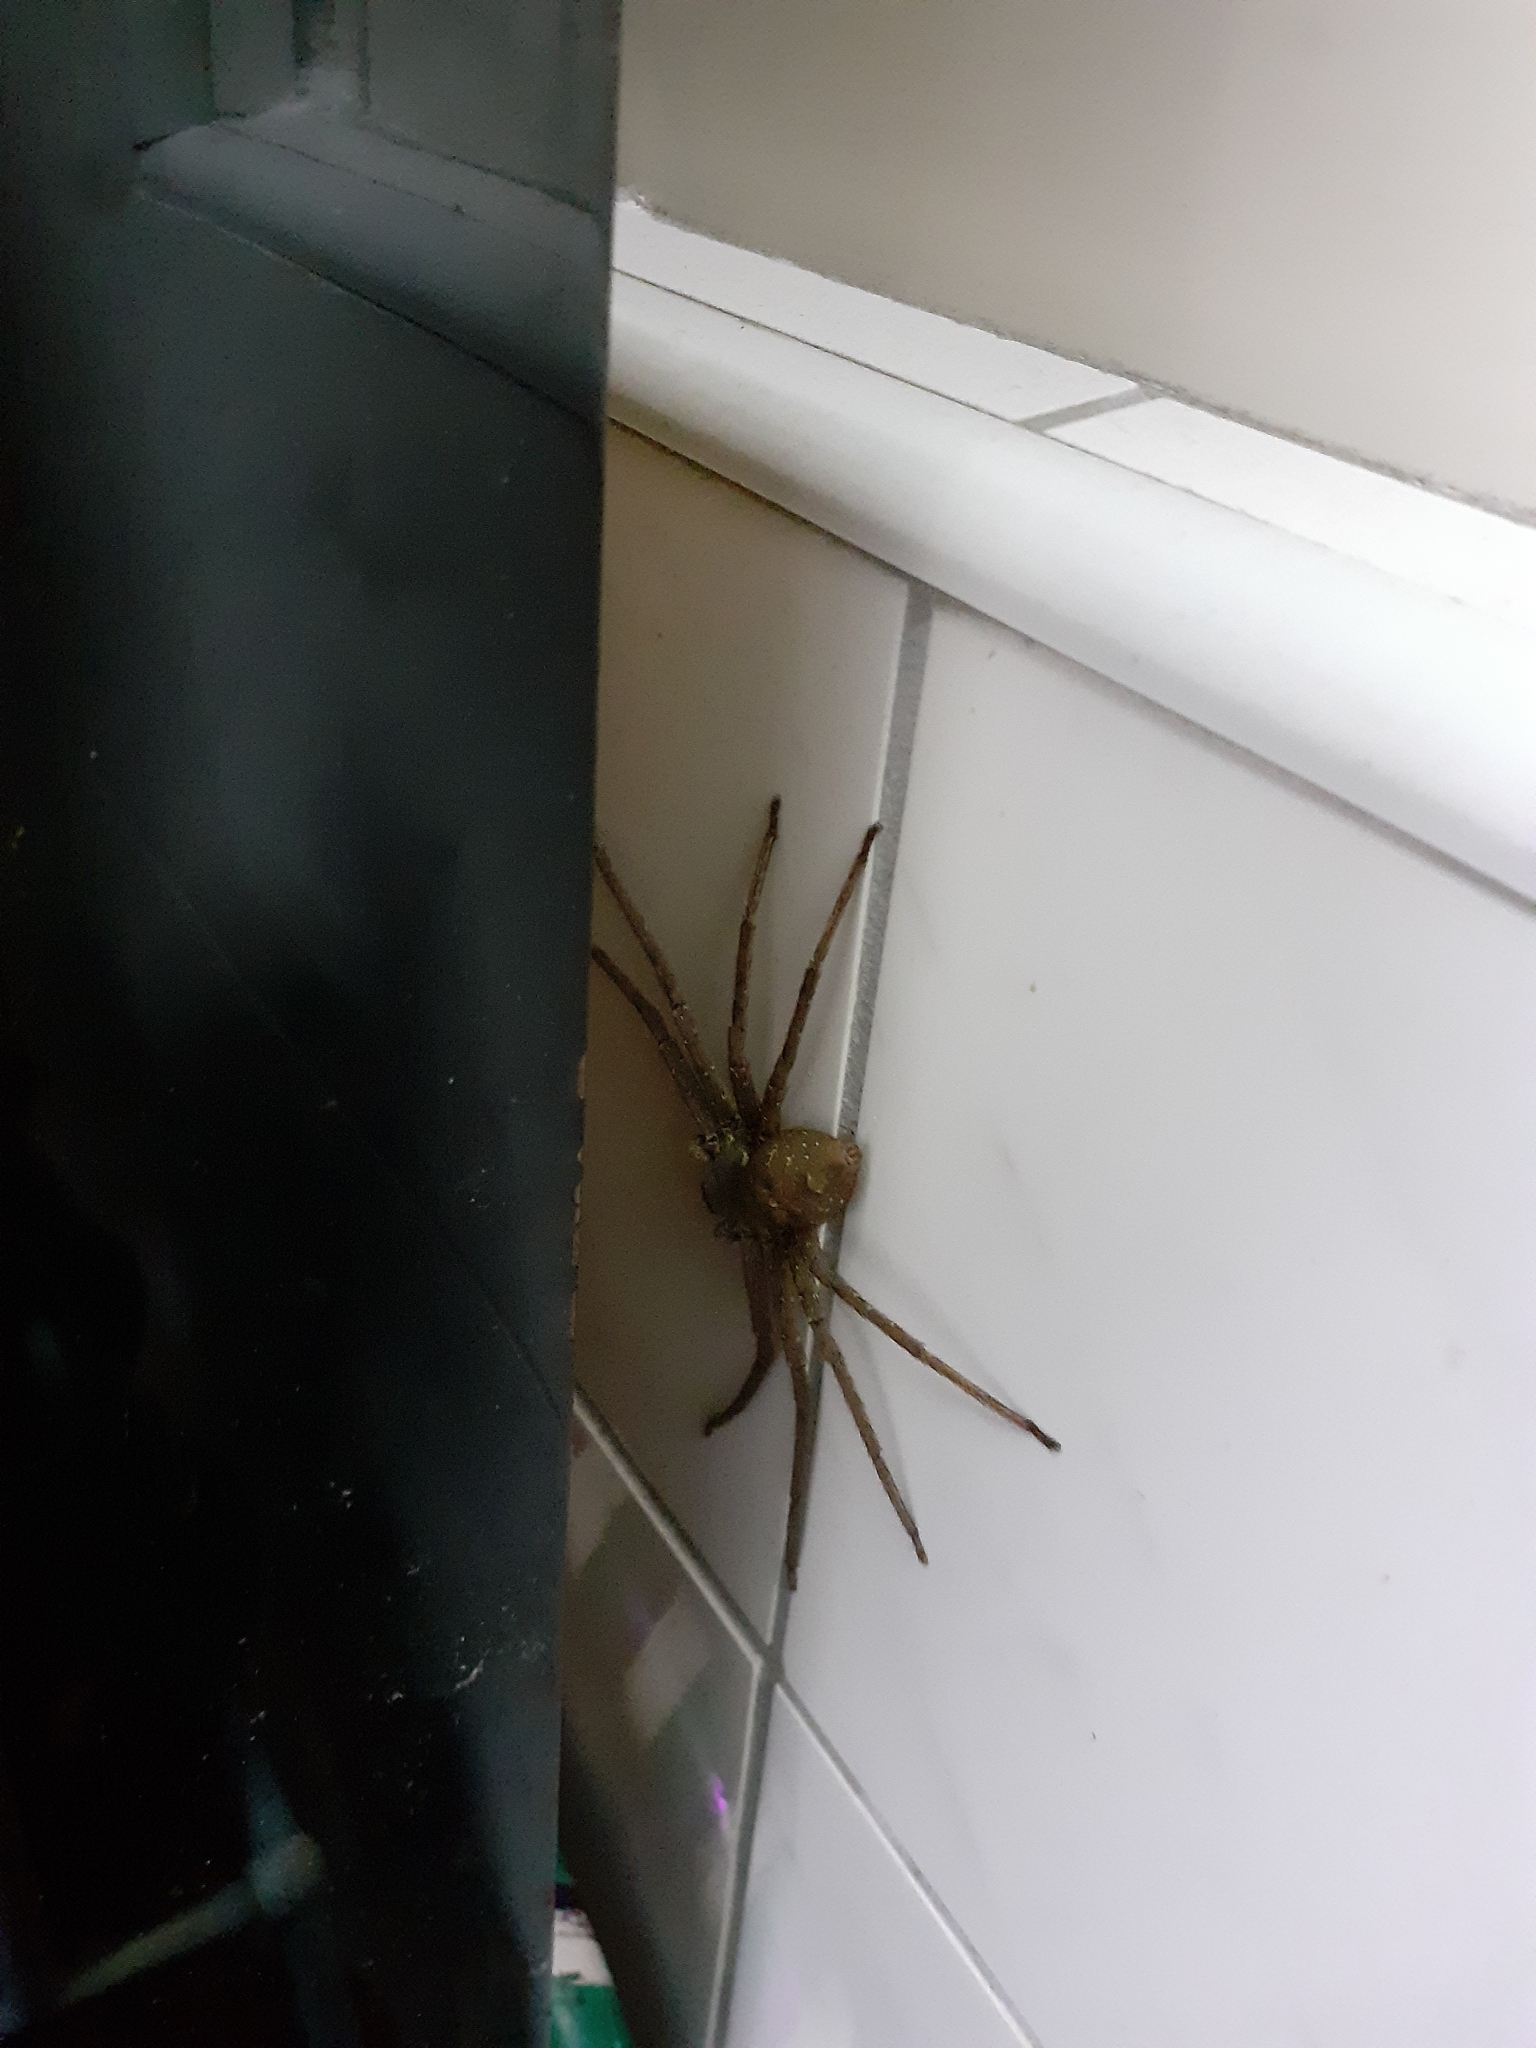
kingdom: Animalia
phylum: Arthropoda
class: Arachnida
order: Araneae
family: Sparassidae
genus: Heteropoda
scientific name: Heteropoda venatoria
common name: Huntsman spider
